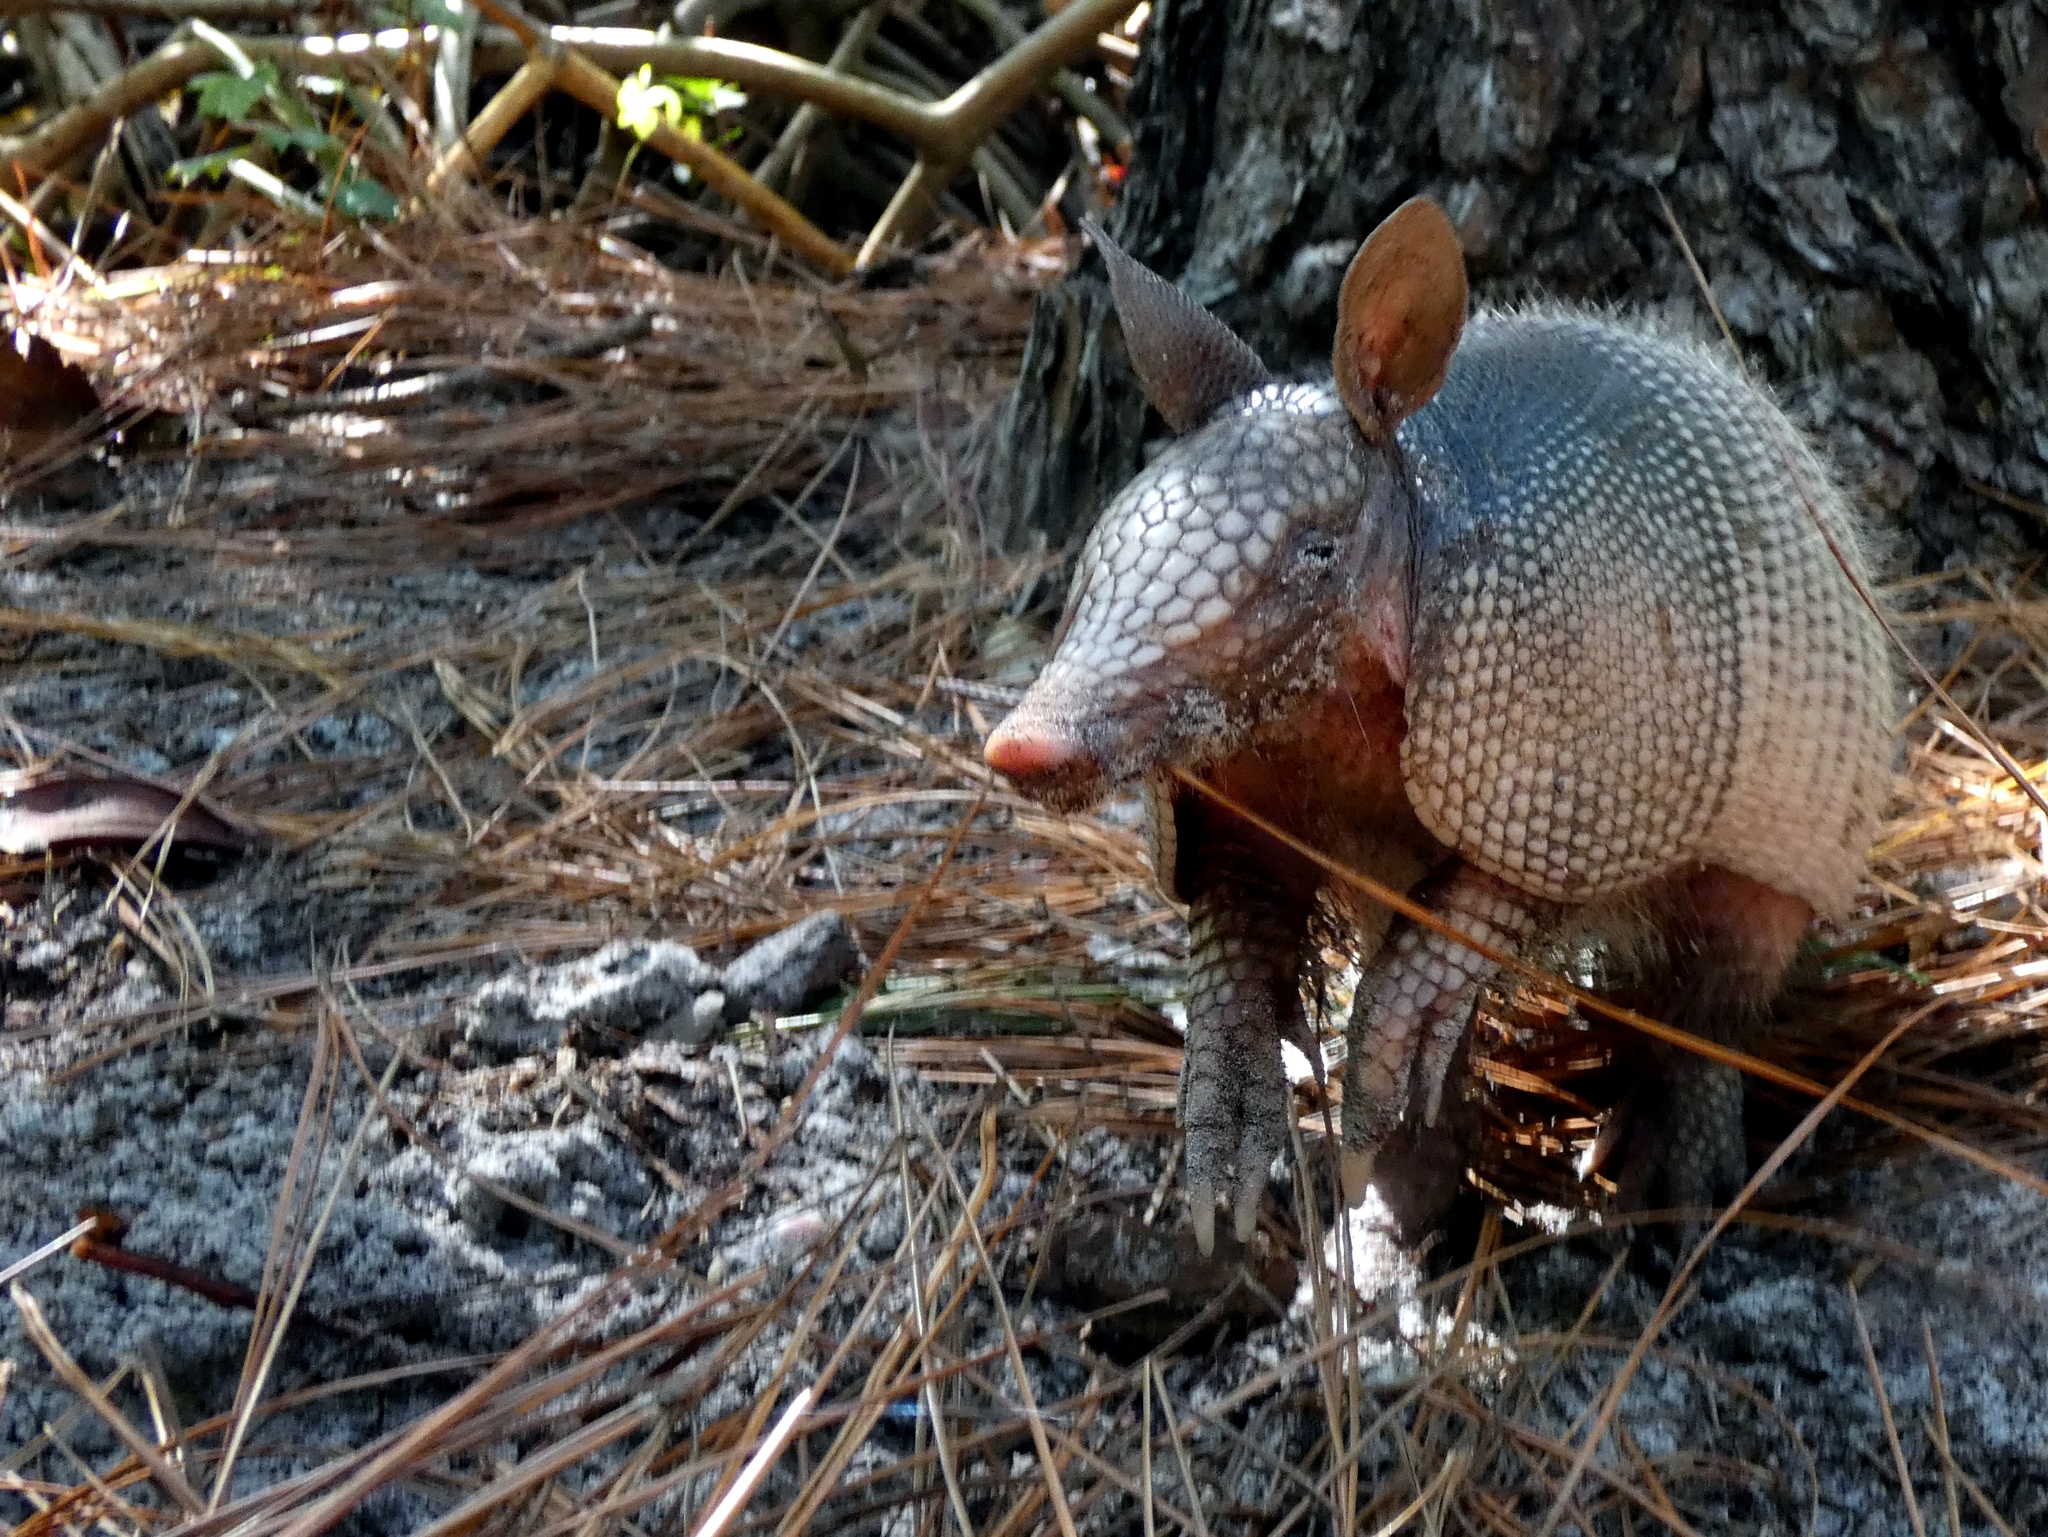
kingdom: Animalia
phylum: Chordata
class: Mammalia
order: Cingulata
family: Dasypodidae
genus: Dasypus
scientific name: Dasypus novemcinctus
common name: Nine-banded armadillo
